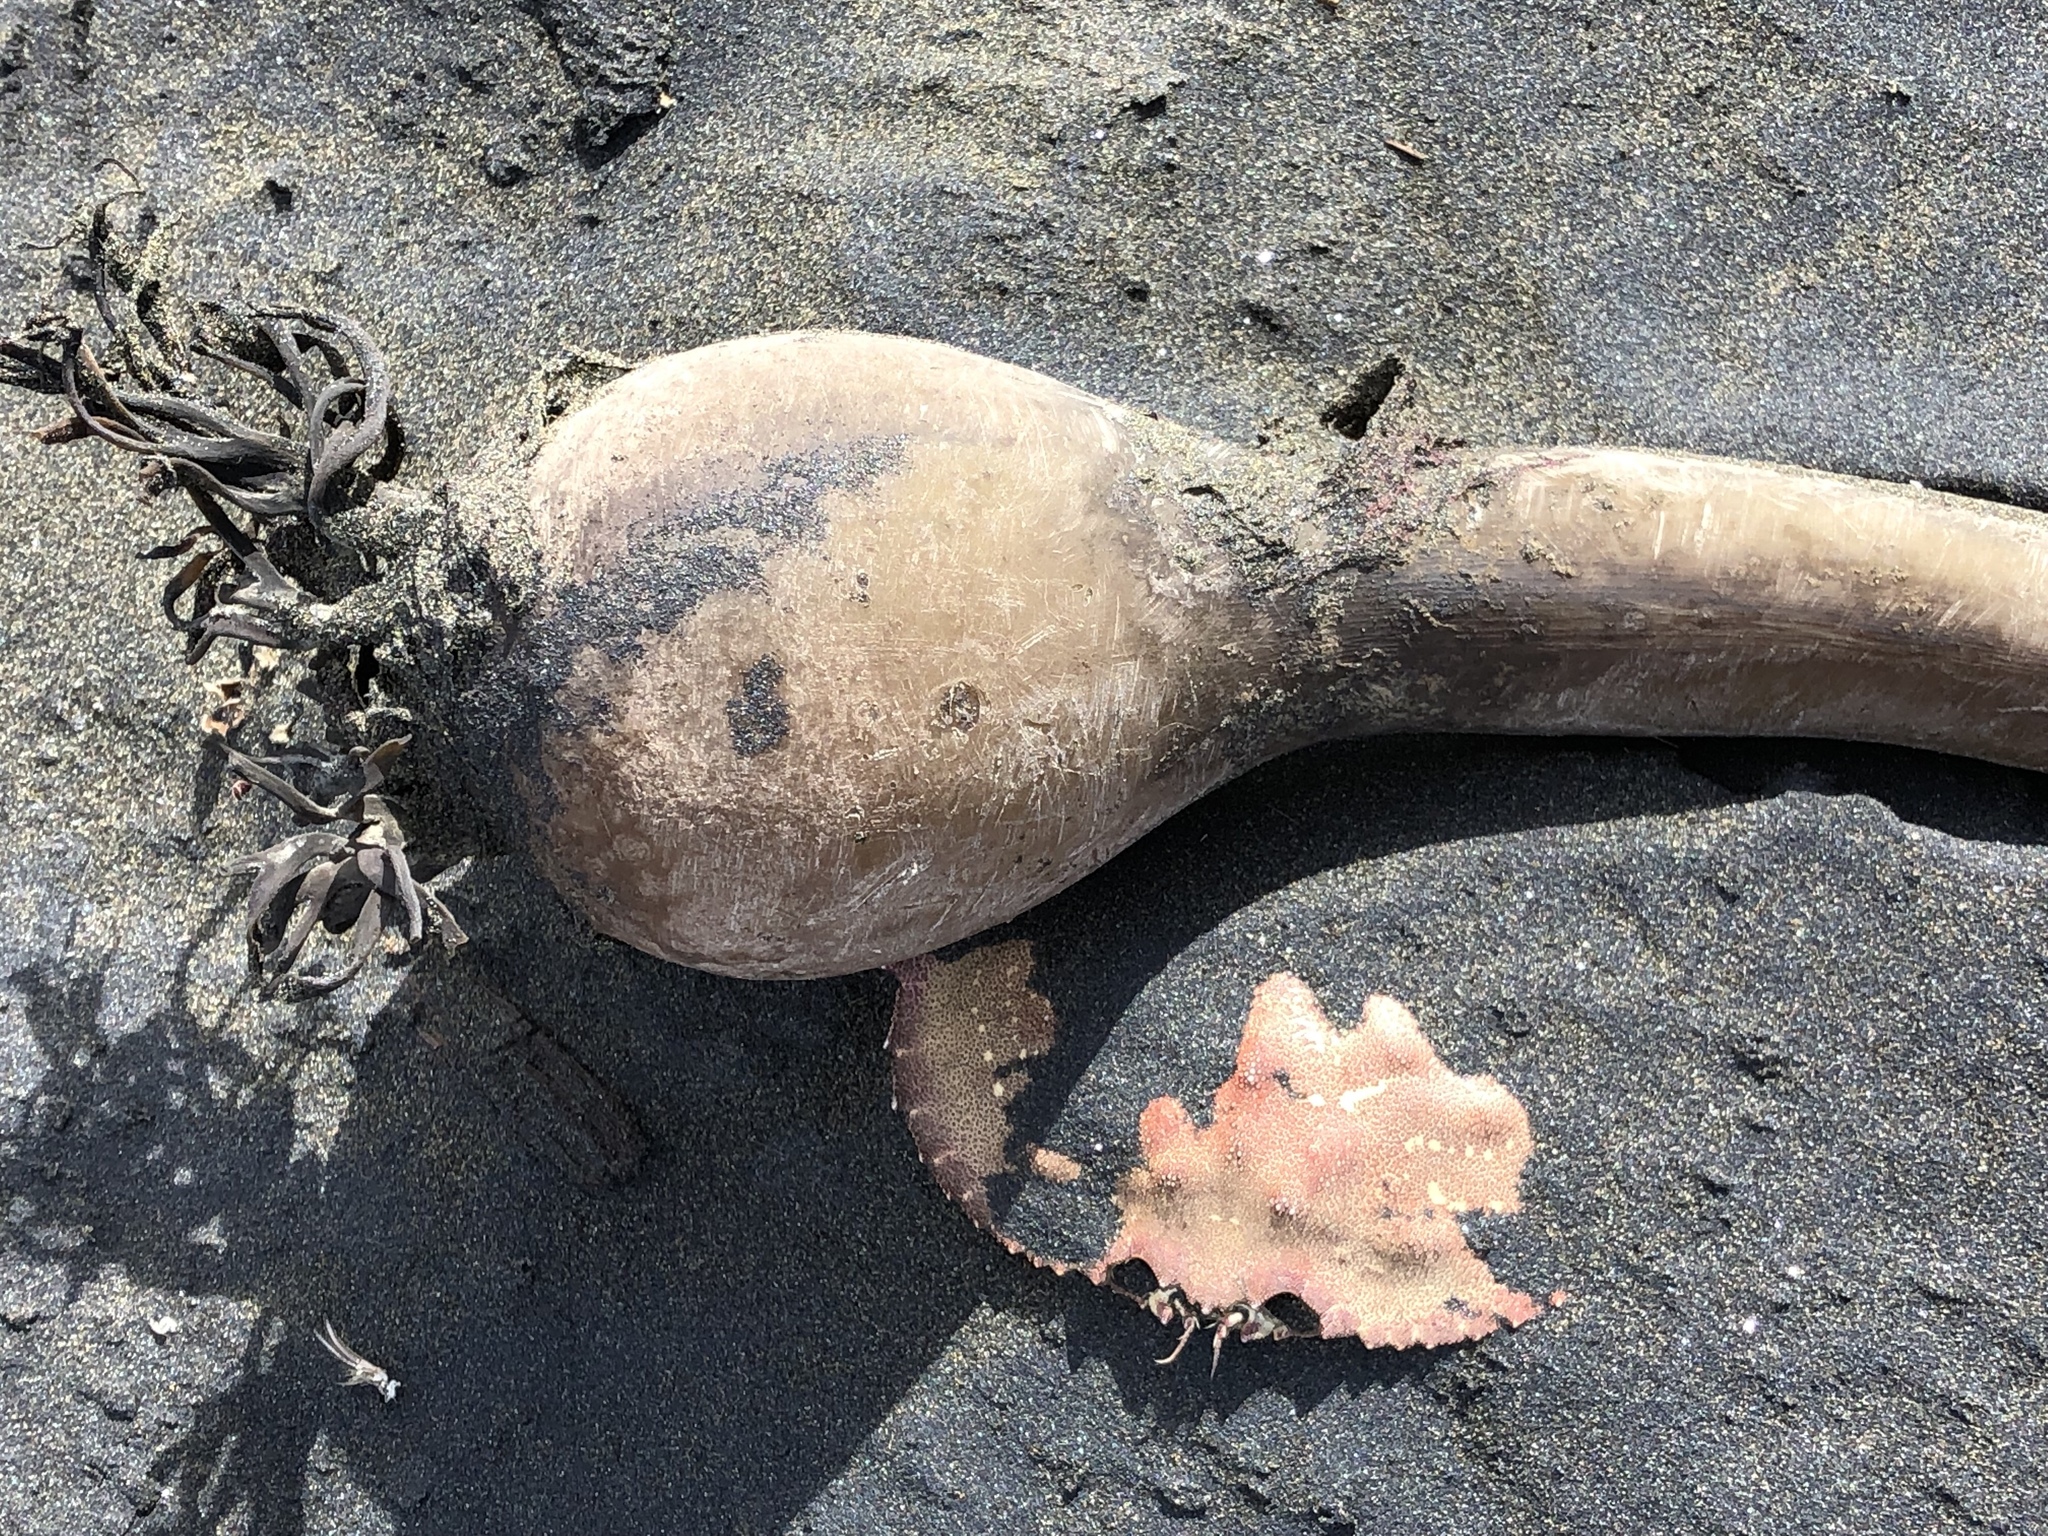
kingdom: Chromista
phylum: Ochrophyta
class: Phaeophyceae
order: Laminariales
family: Laminariaceae
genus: Nereocystis
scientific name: Nereocystis luetkeana
